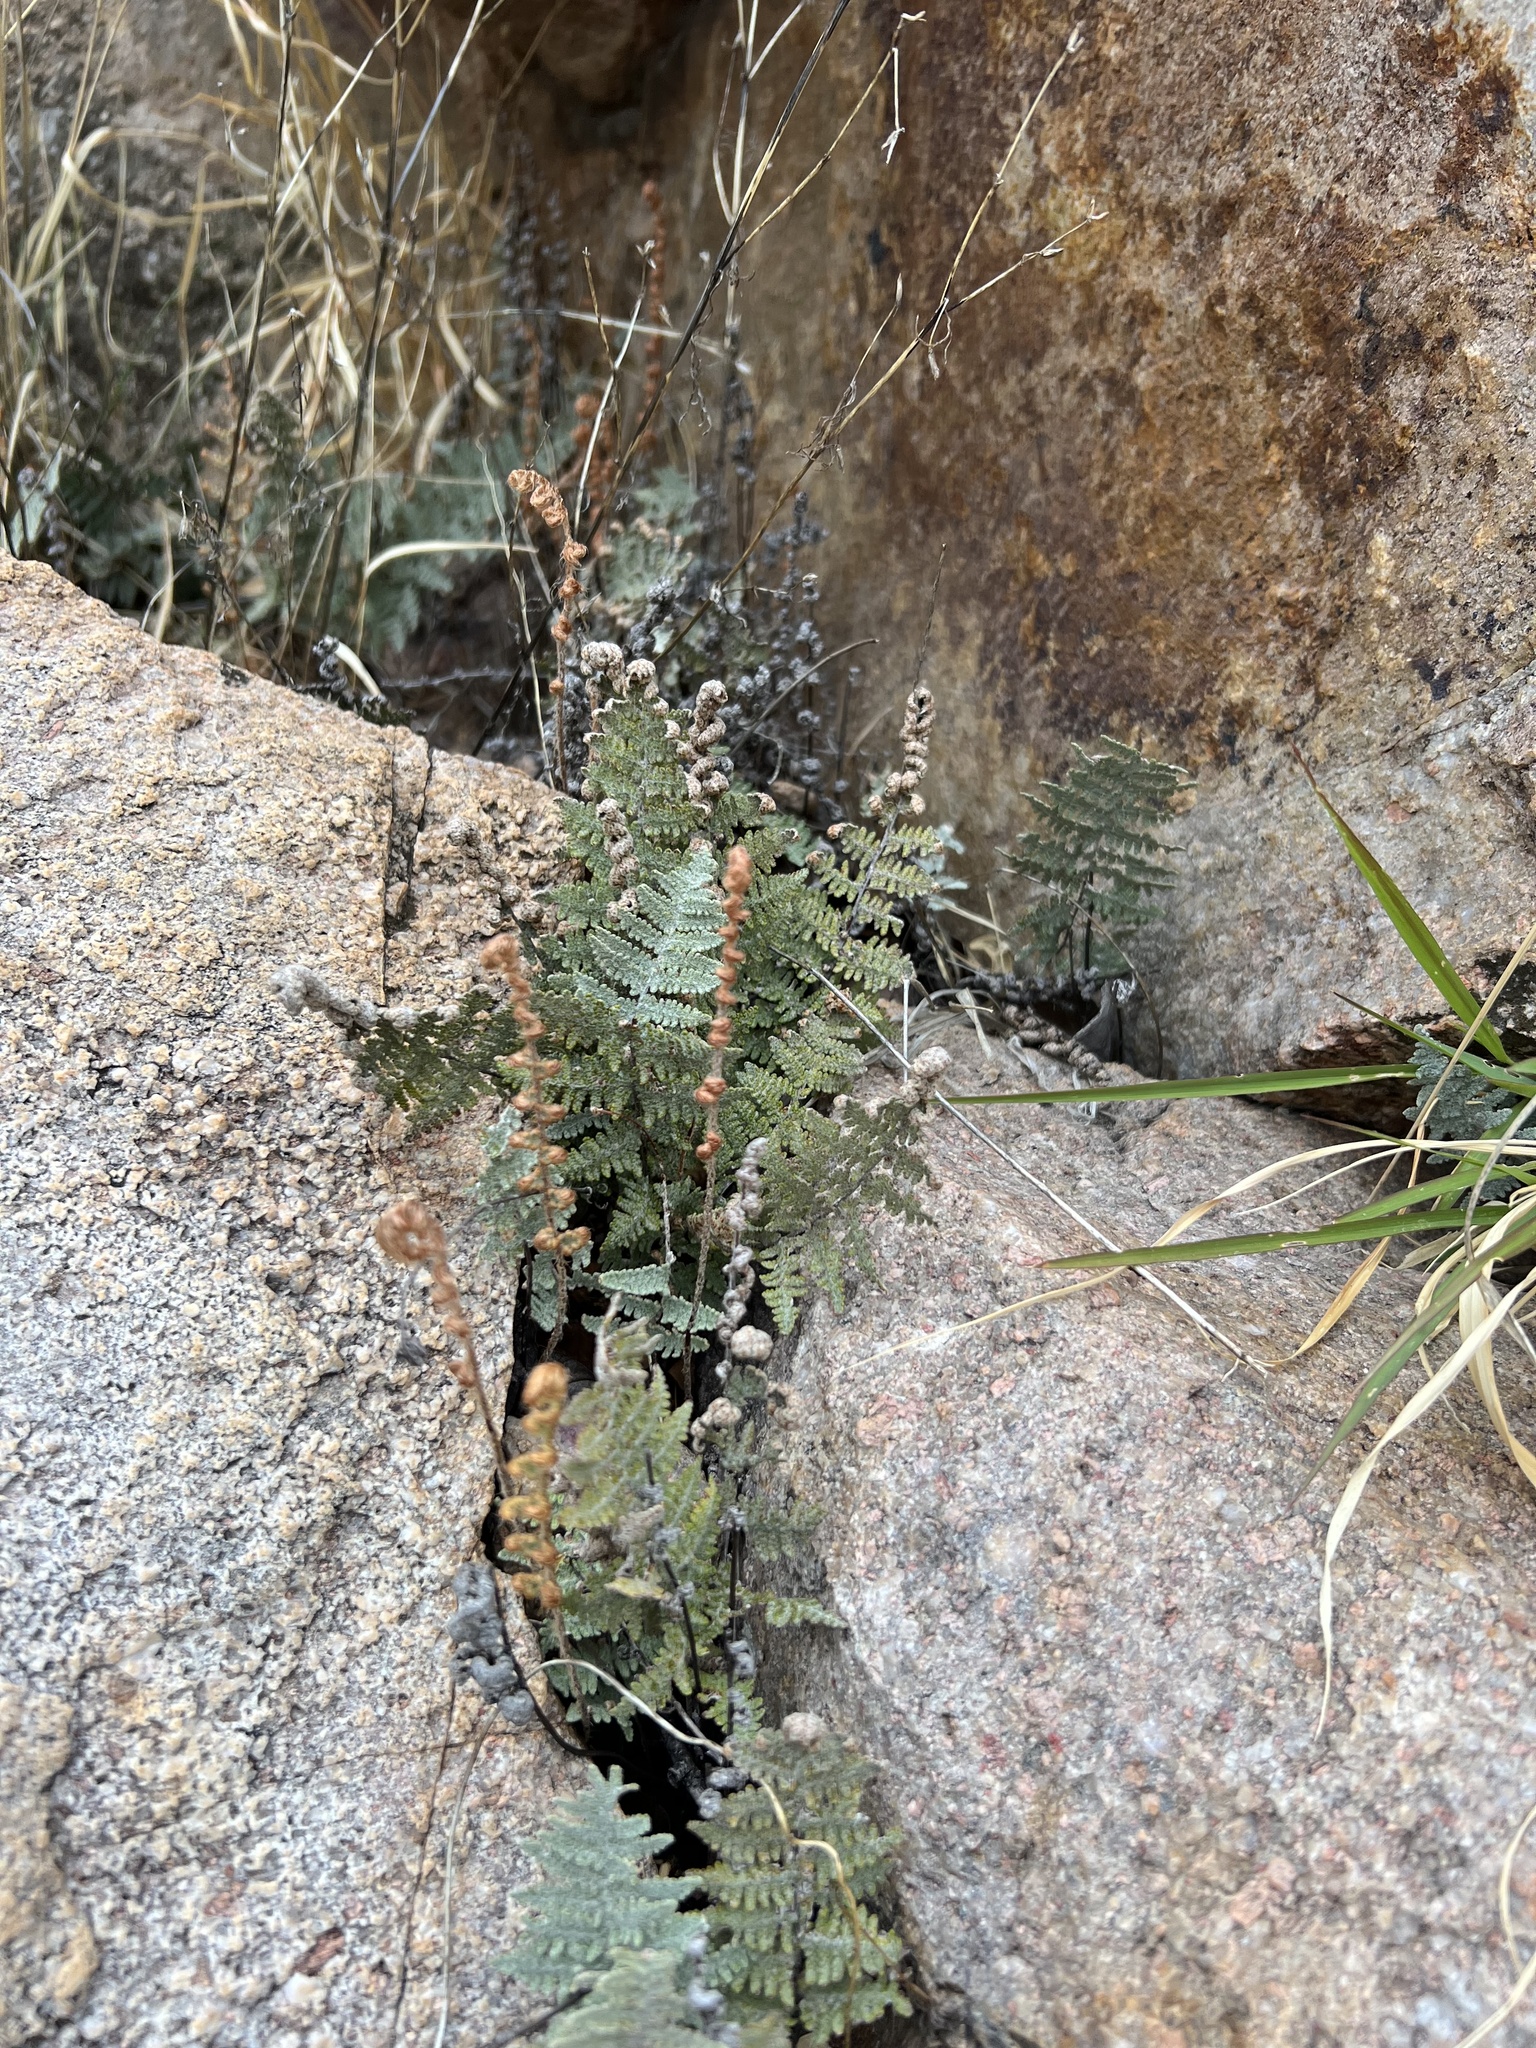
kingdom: Plantae
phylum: Tracheophyta
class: Polypodiopsida
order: Polypodiales
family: Pteridaceae
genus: Myriopteris
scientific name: Myriopteris lindheimeri
